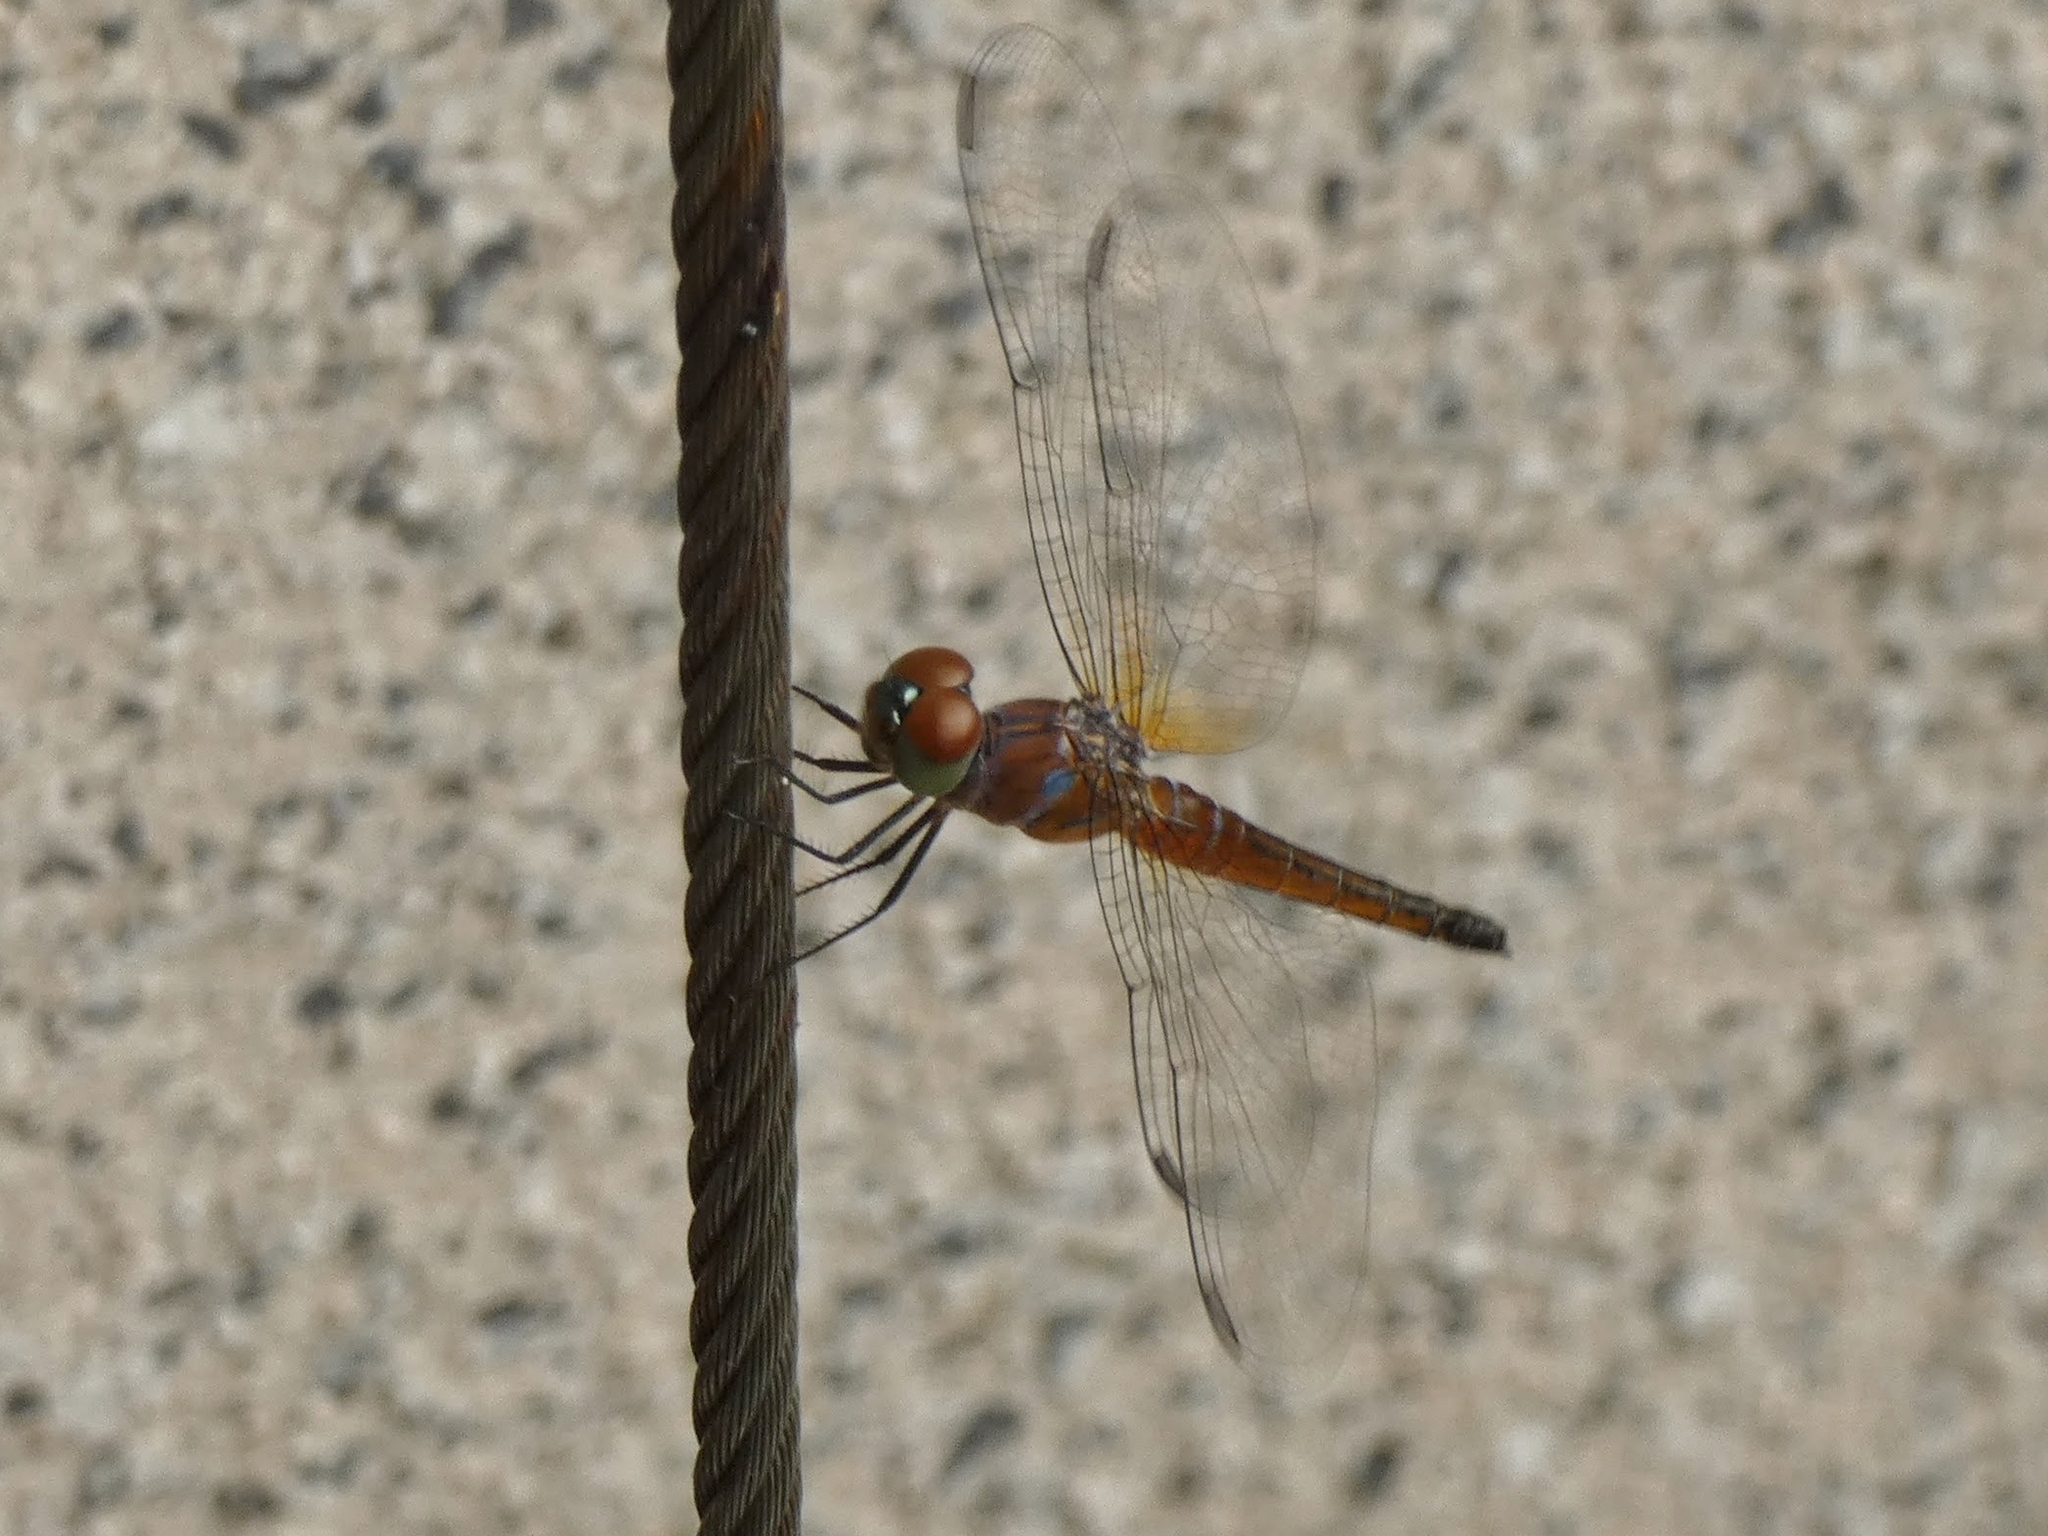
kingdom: Animalia
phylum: Arthropoda
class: Insecta
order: Odonata
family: Libellulidae
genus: Brachydiplax
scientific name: Brachydiplax chalybea
